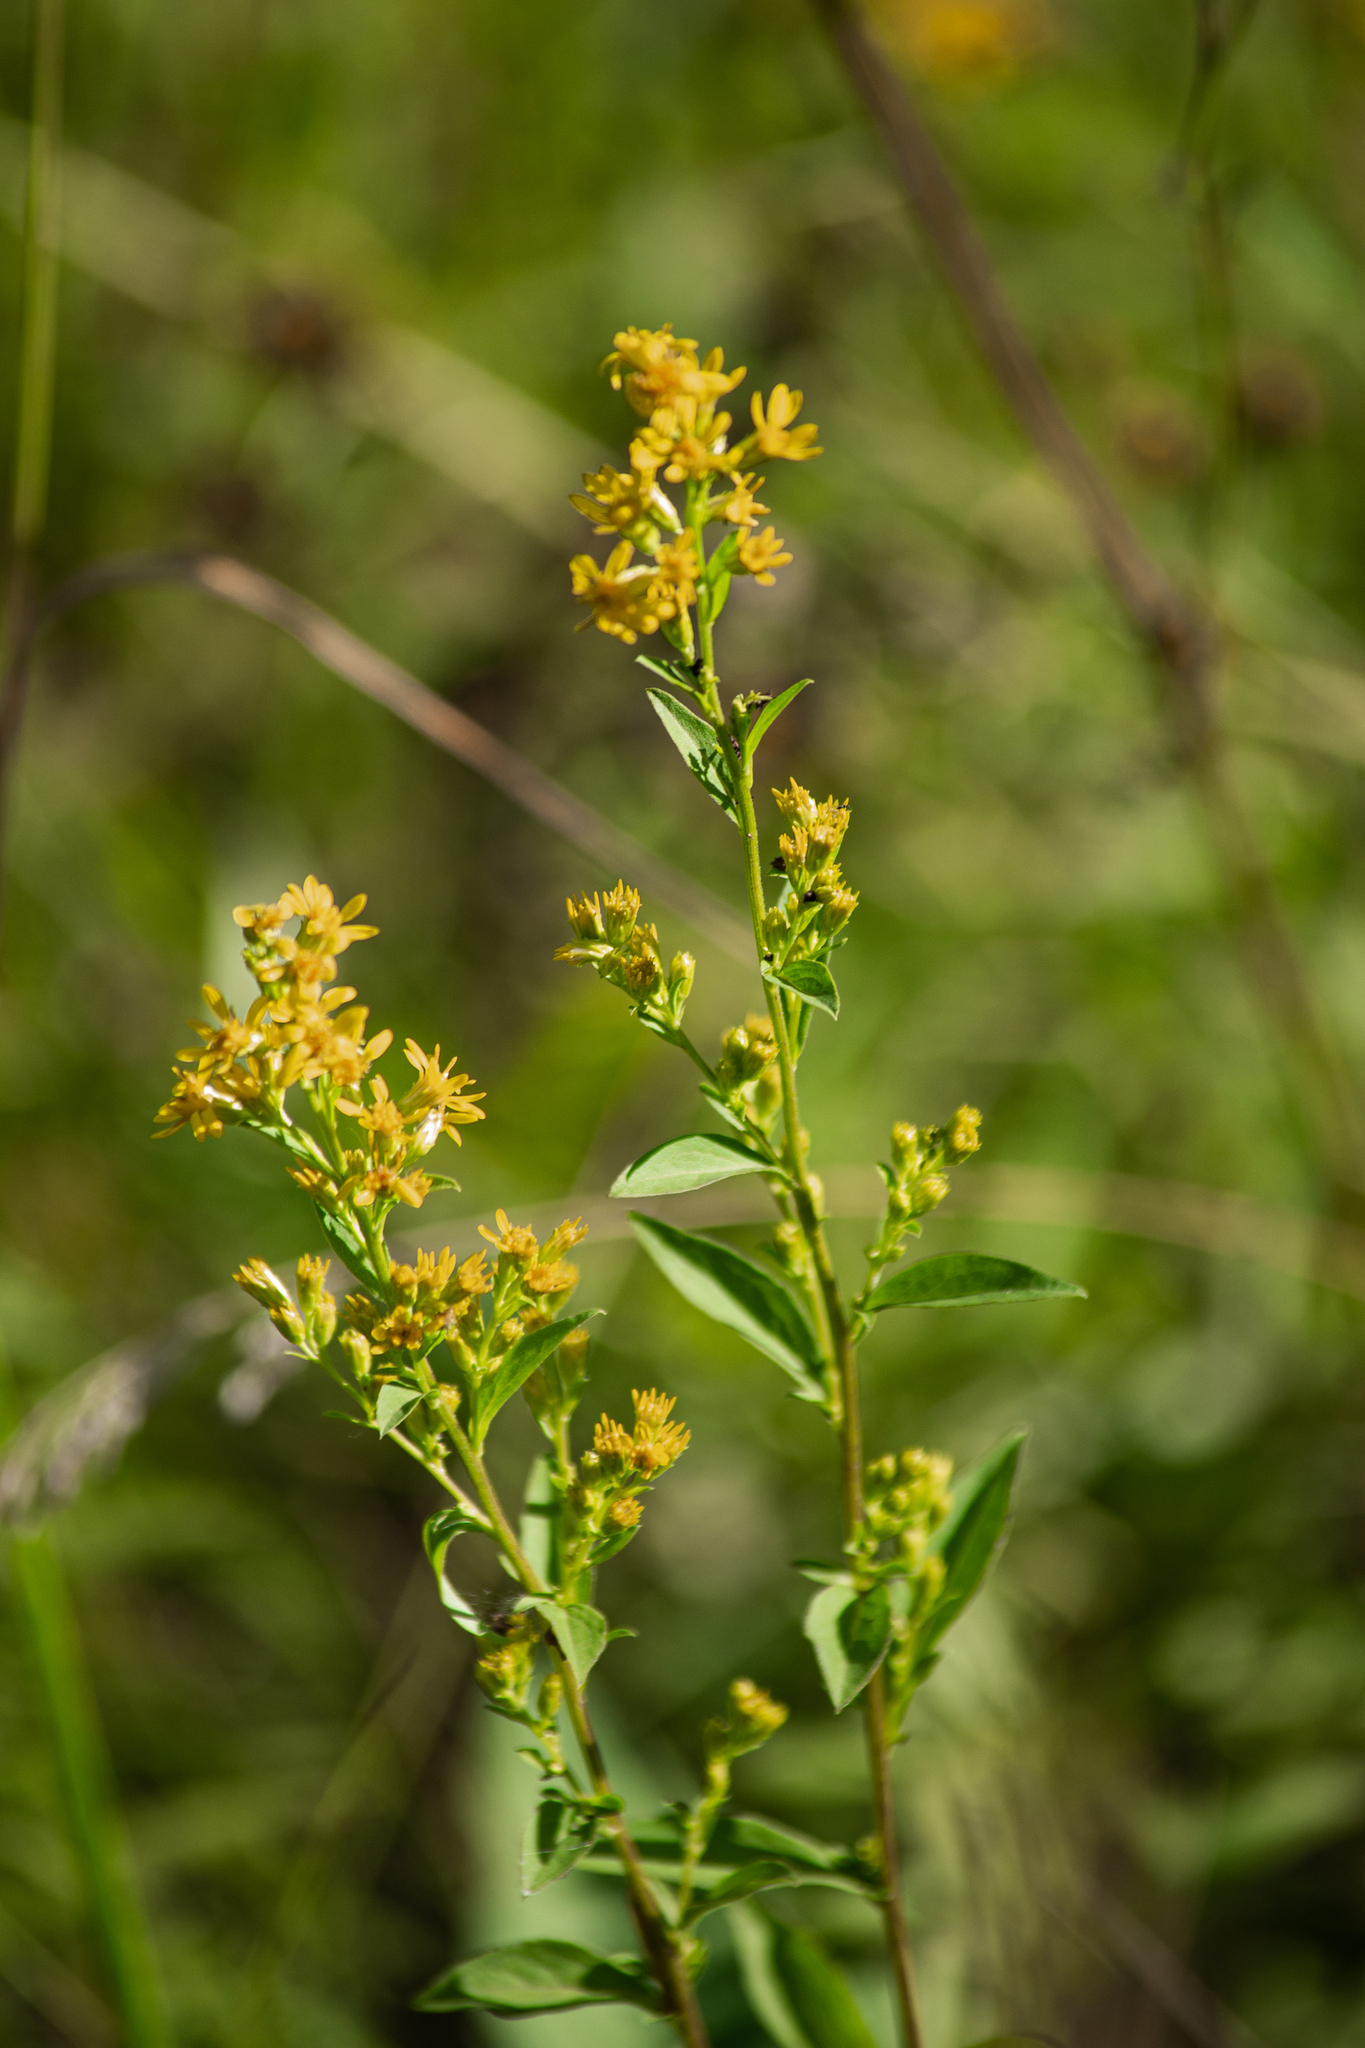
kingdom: Plantae
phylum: Tracheophyta
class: Magnoliopsida
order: Asterales
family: Asteraceae
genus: Solidago
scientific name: Solidago virgaurea
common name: Goldenrod
